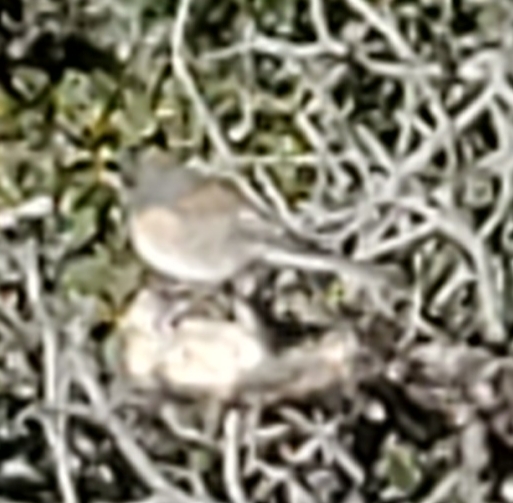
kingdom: Animalia
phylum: Chordata
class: Aves
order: Passeriformes
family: Passerellidae
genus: Junco
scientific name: Junco hyemalis
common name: Dark-eyed junco
